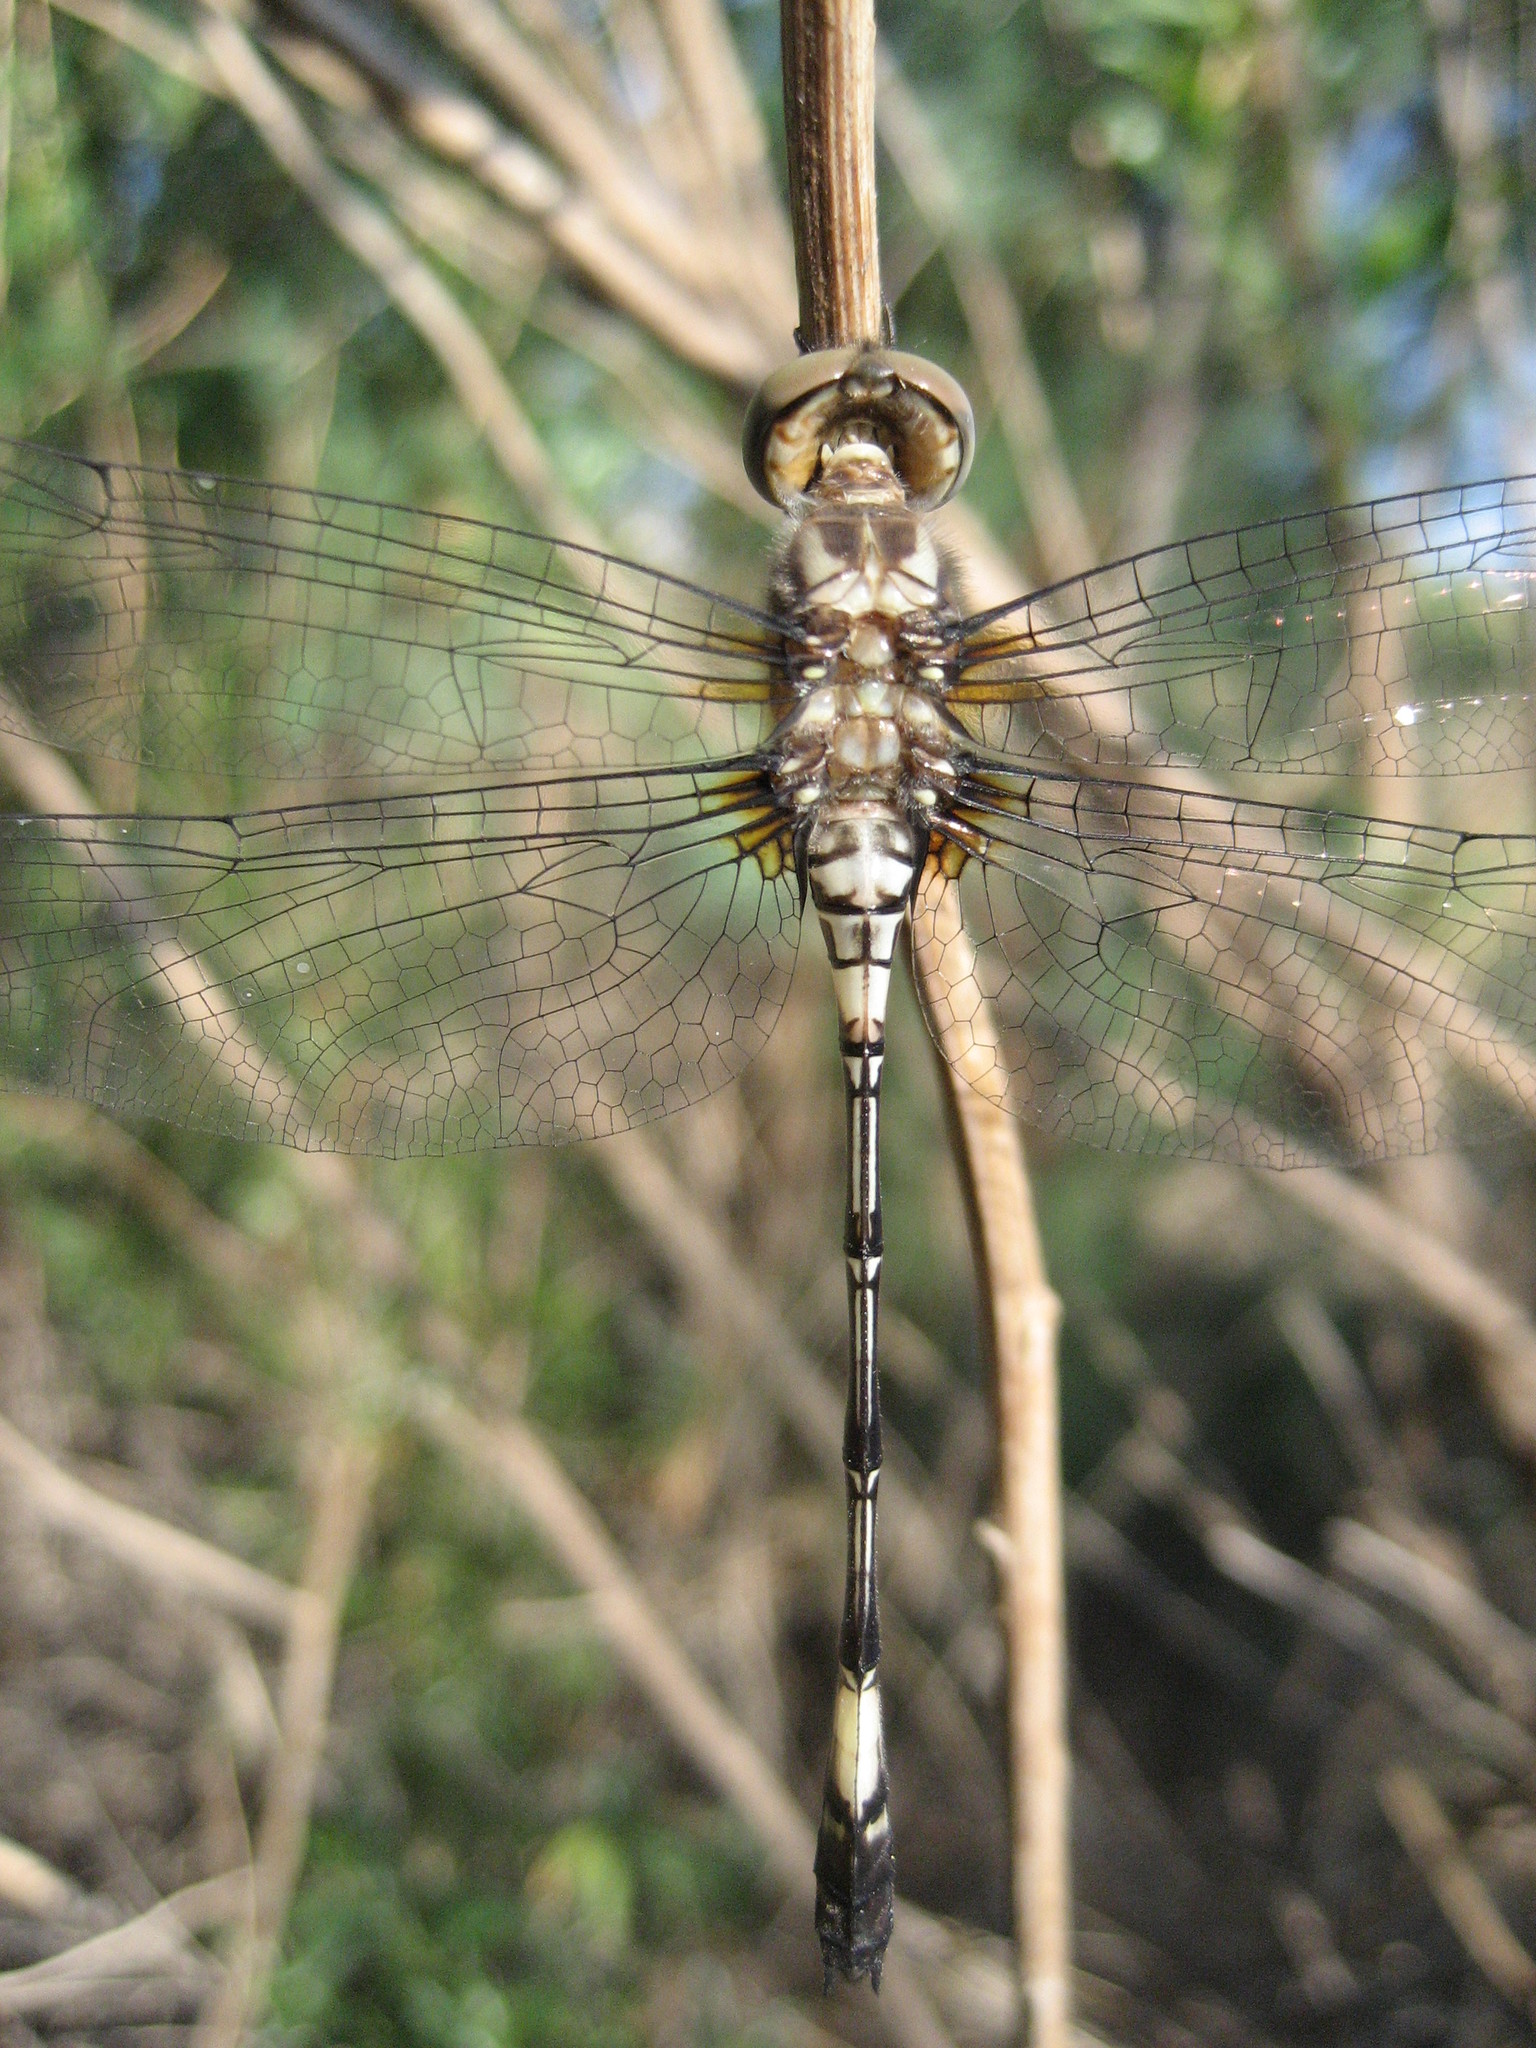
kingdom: Animalia
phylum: Arthropoda
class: Insecta
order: Odonata
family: Libellulidae
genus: Brechmorhoga
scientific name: Brechmorhoga mendax
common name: Pale-faced clubskimmer
